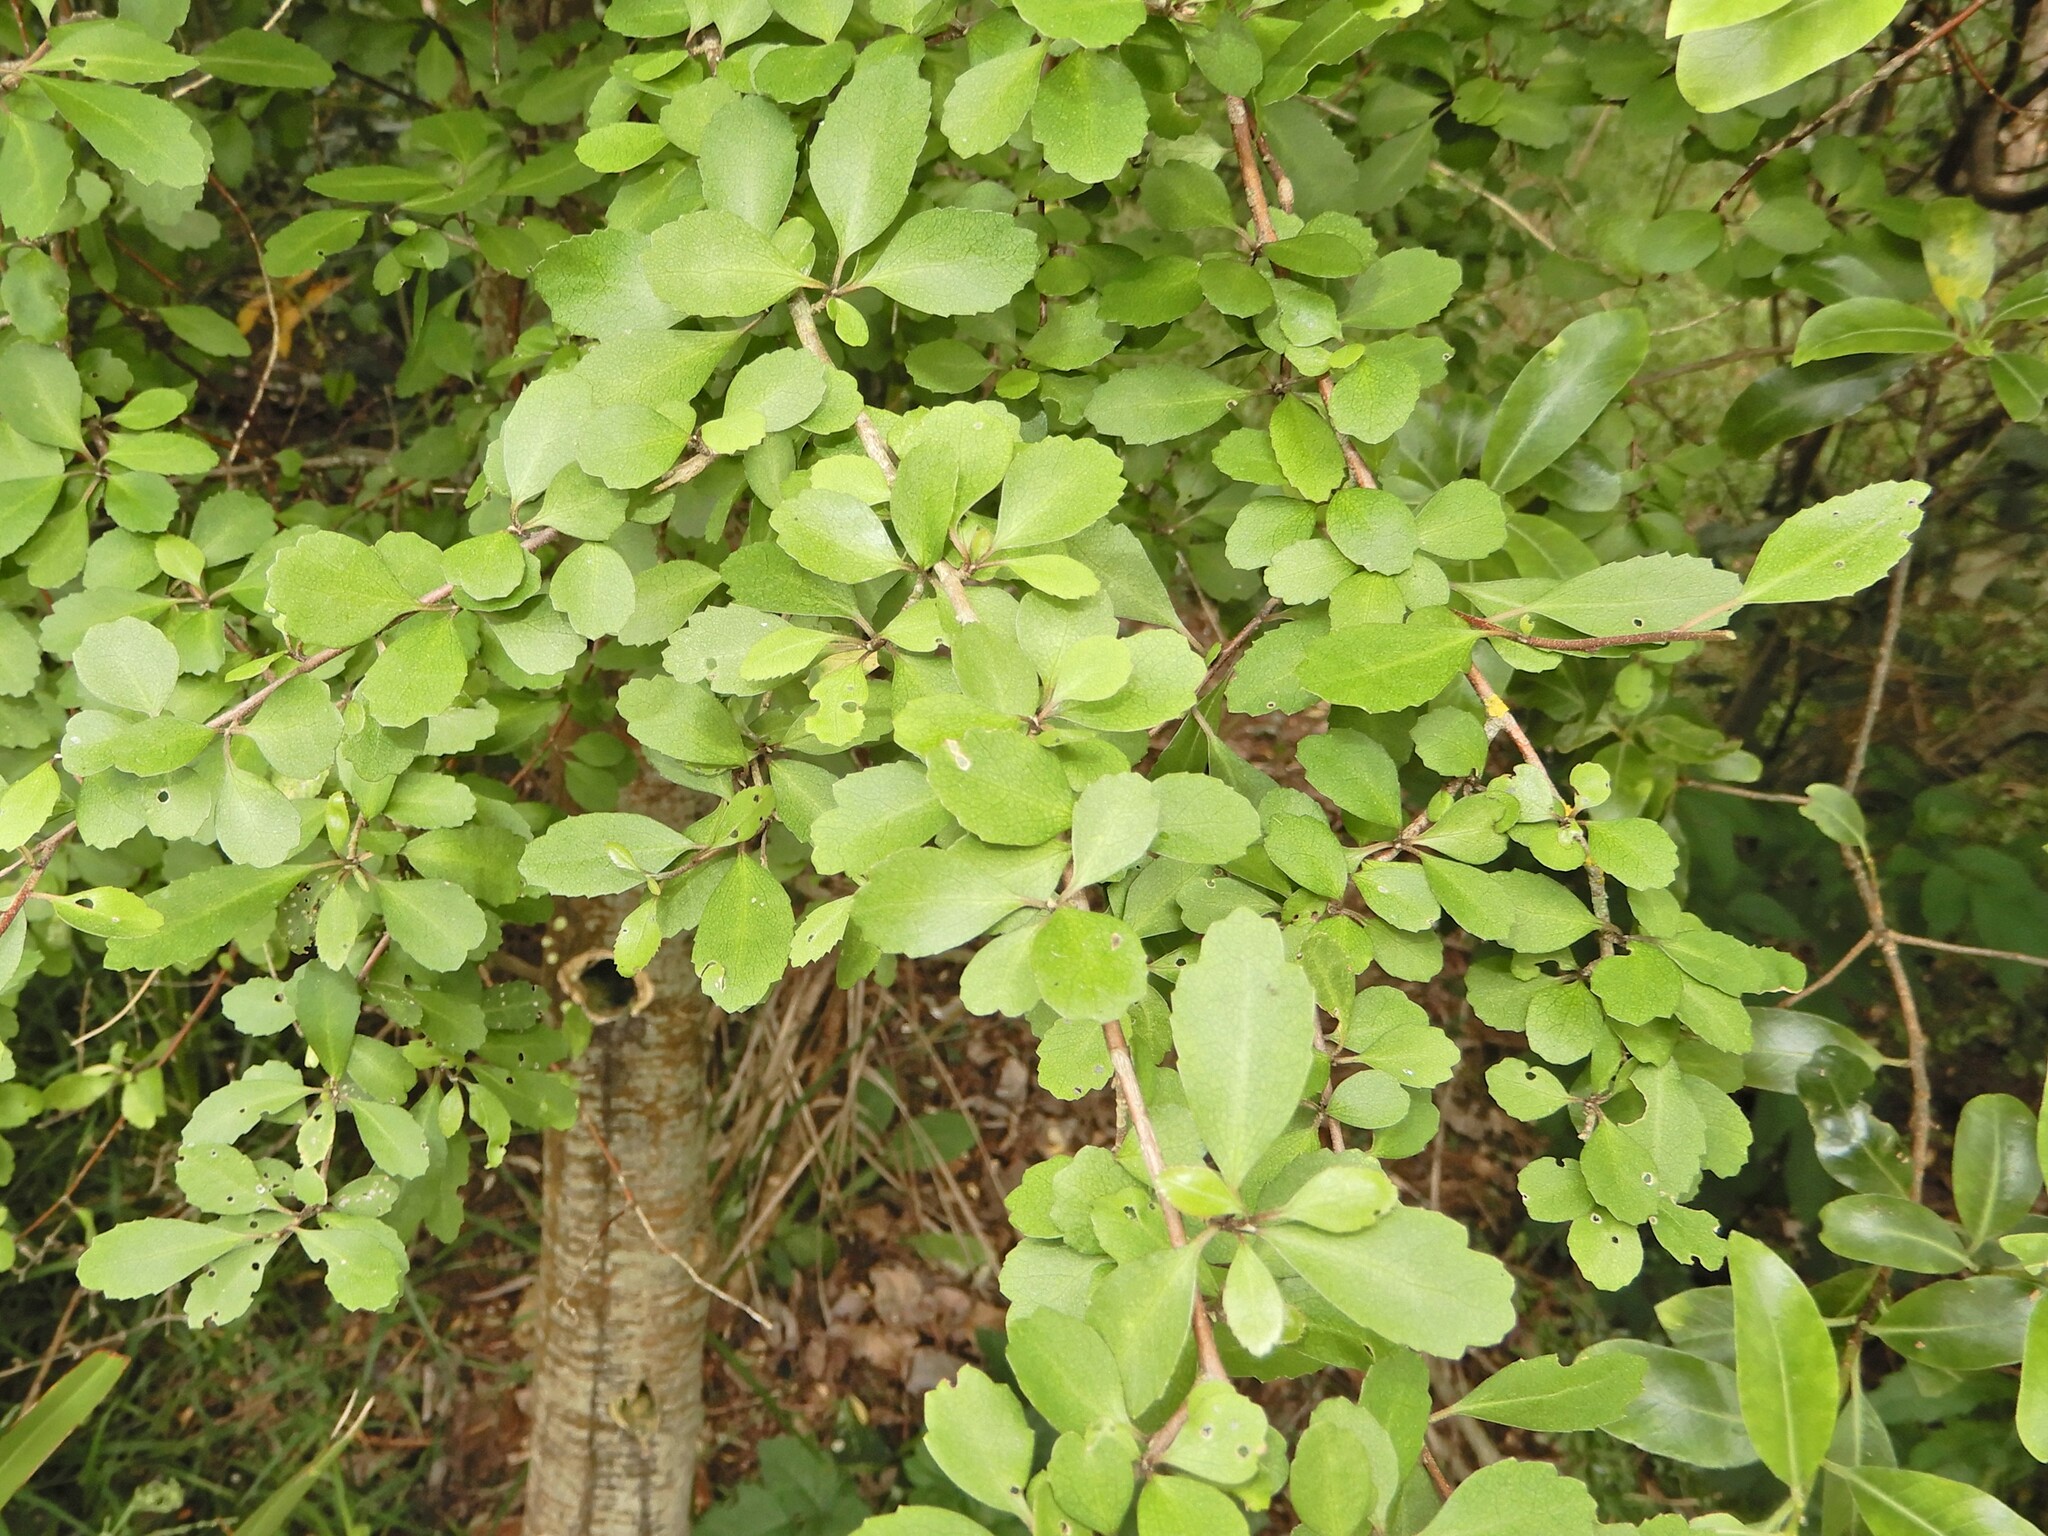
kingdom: Plantae
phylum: Tracheophyta
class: Magnoliopsida
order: Malvales
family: Malvaceae
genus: Hoheria
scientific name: Hoheria angustifolia
